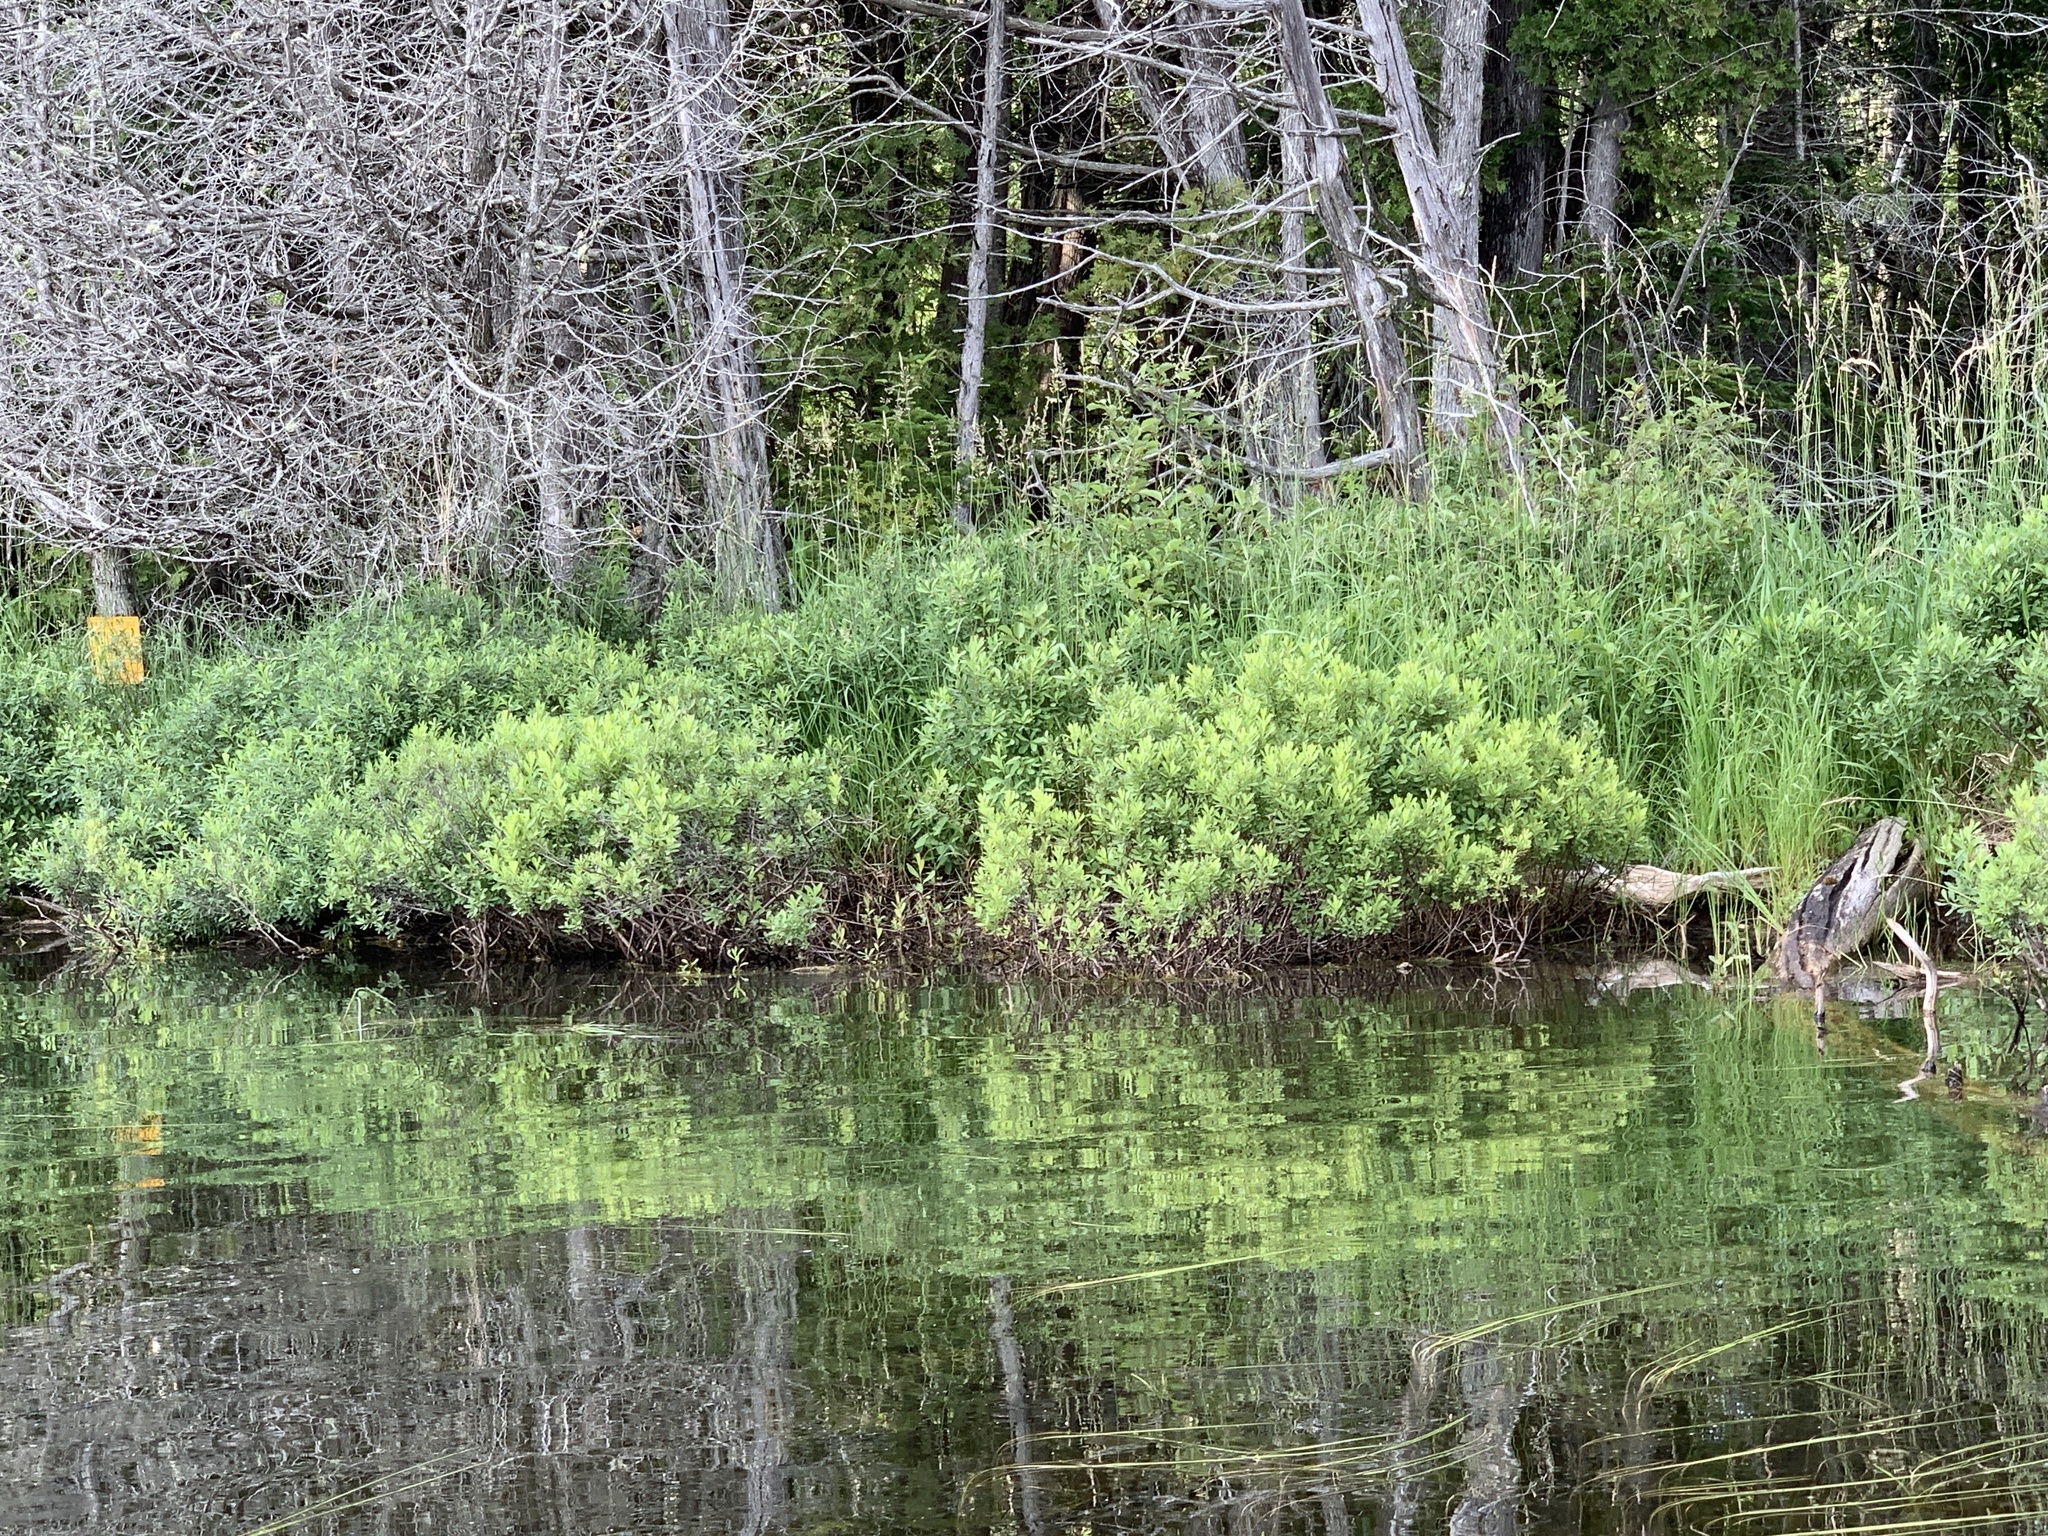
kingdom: Plantae
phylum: Tracheophyta
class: Magnoliopsida
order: Fagales
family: Myricaceae
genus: Myrica
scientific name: Myrica gale
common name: Sweet gale
